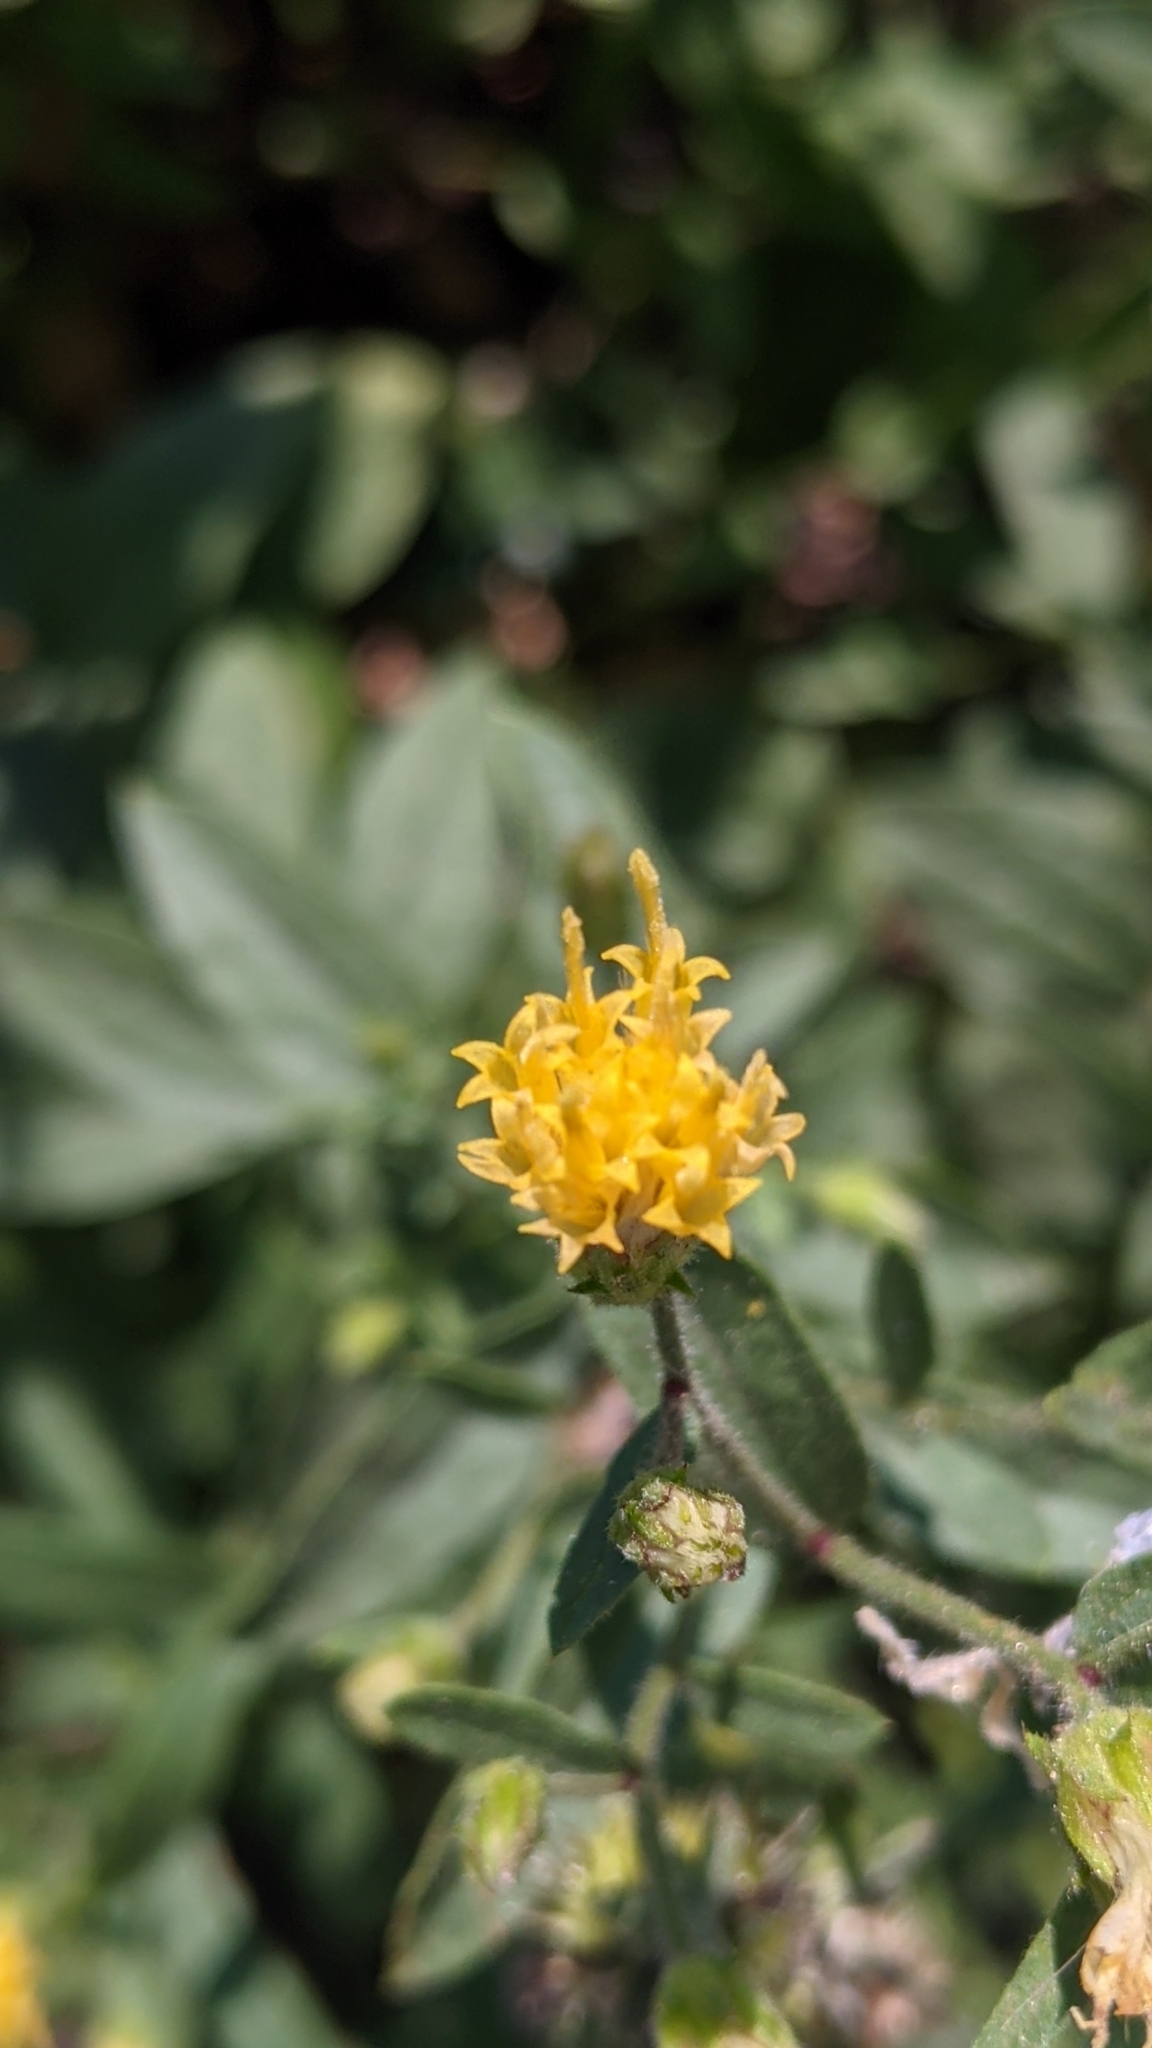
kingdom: Plantae
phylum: Tracheophyta
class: Magnoliopsida
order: Asterales
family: Asteraceae
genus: Eucephalus
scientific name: Eucephalus breweri
